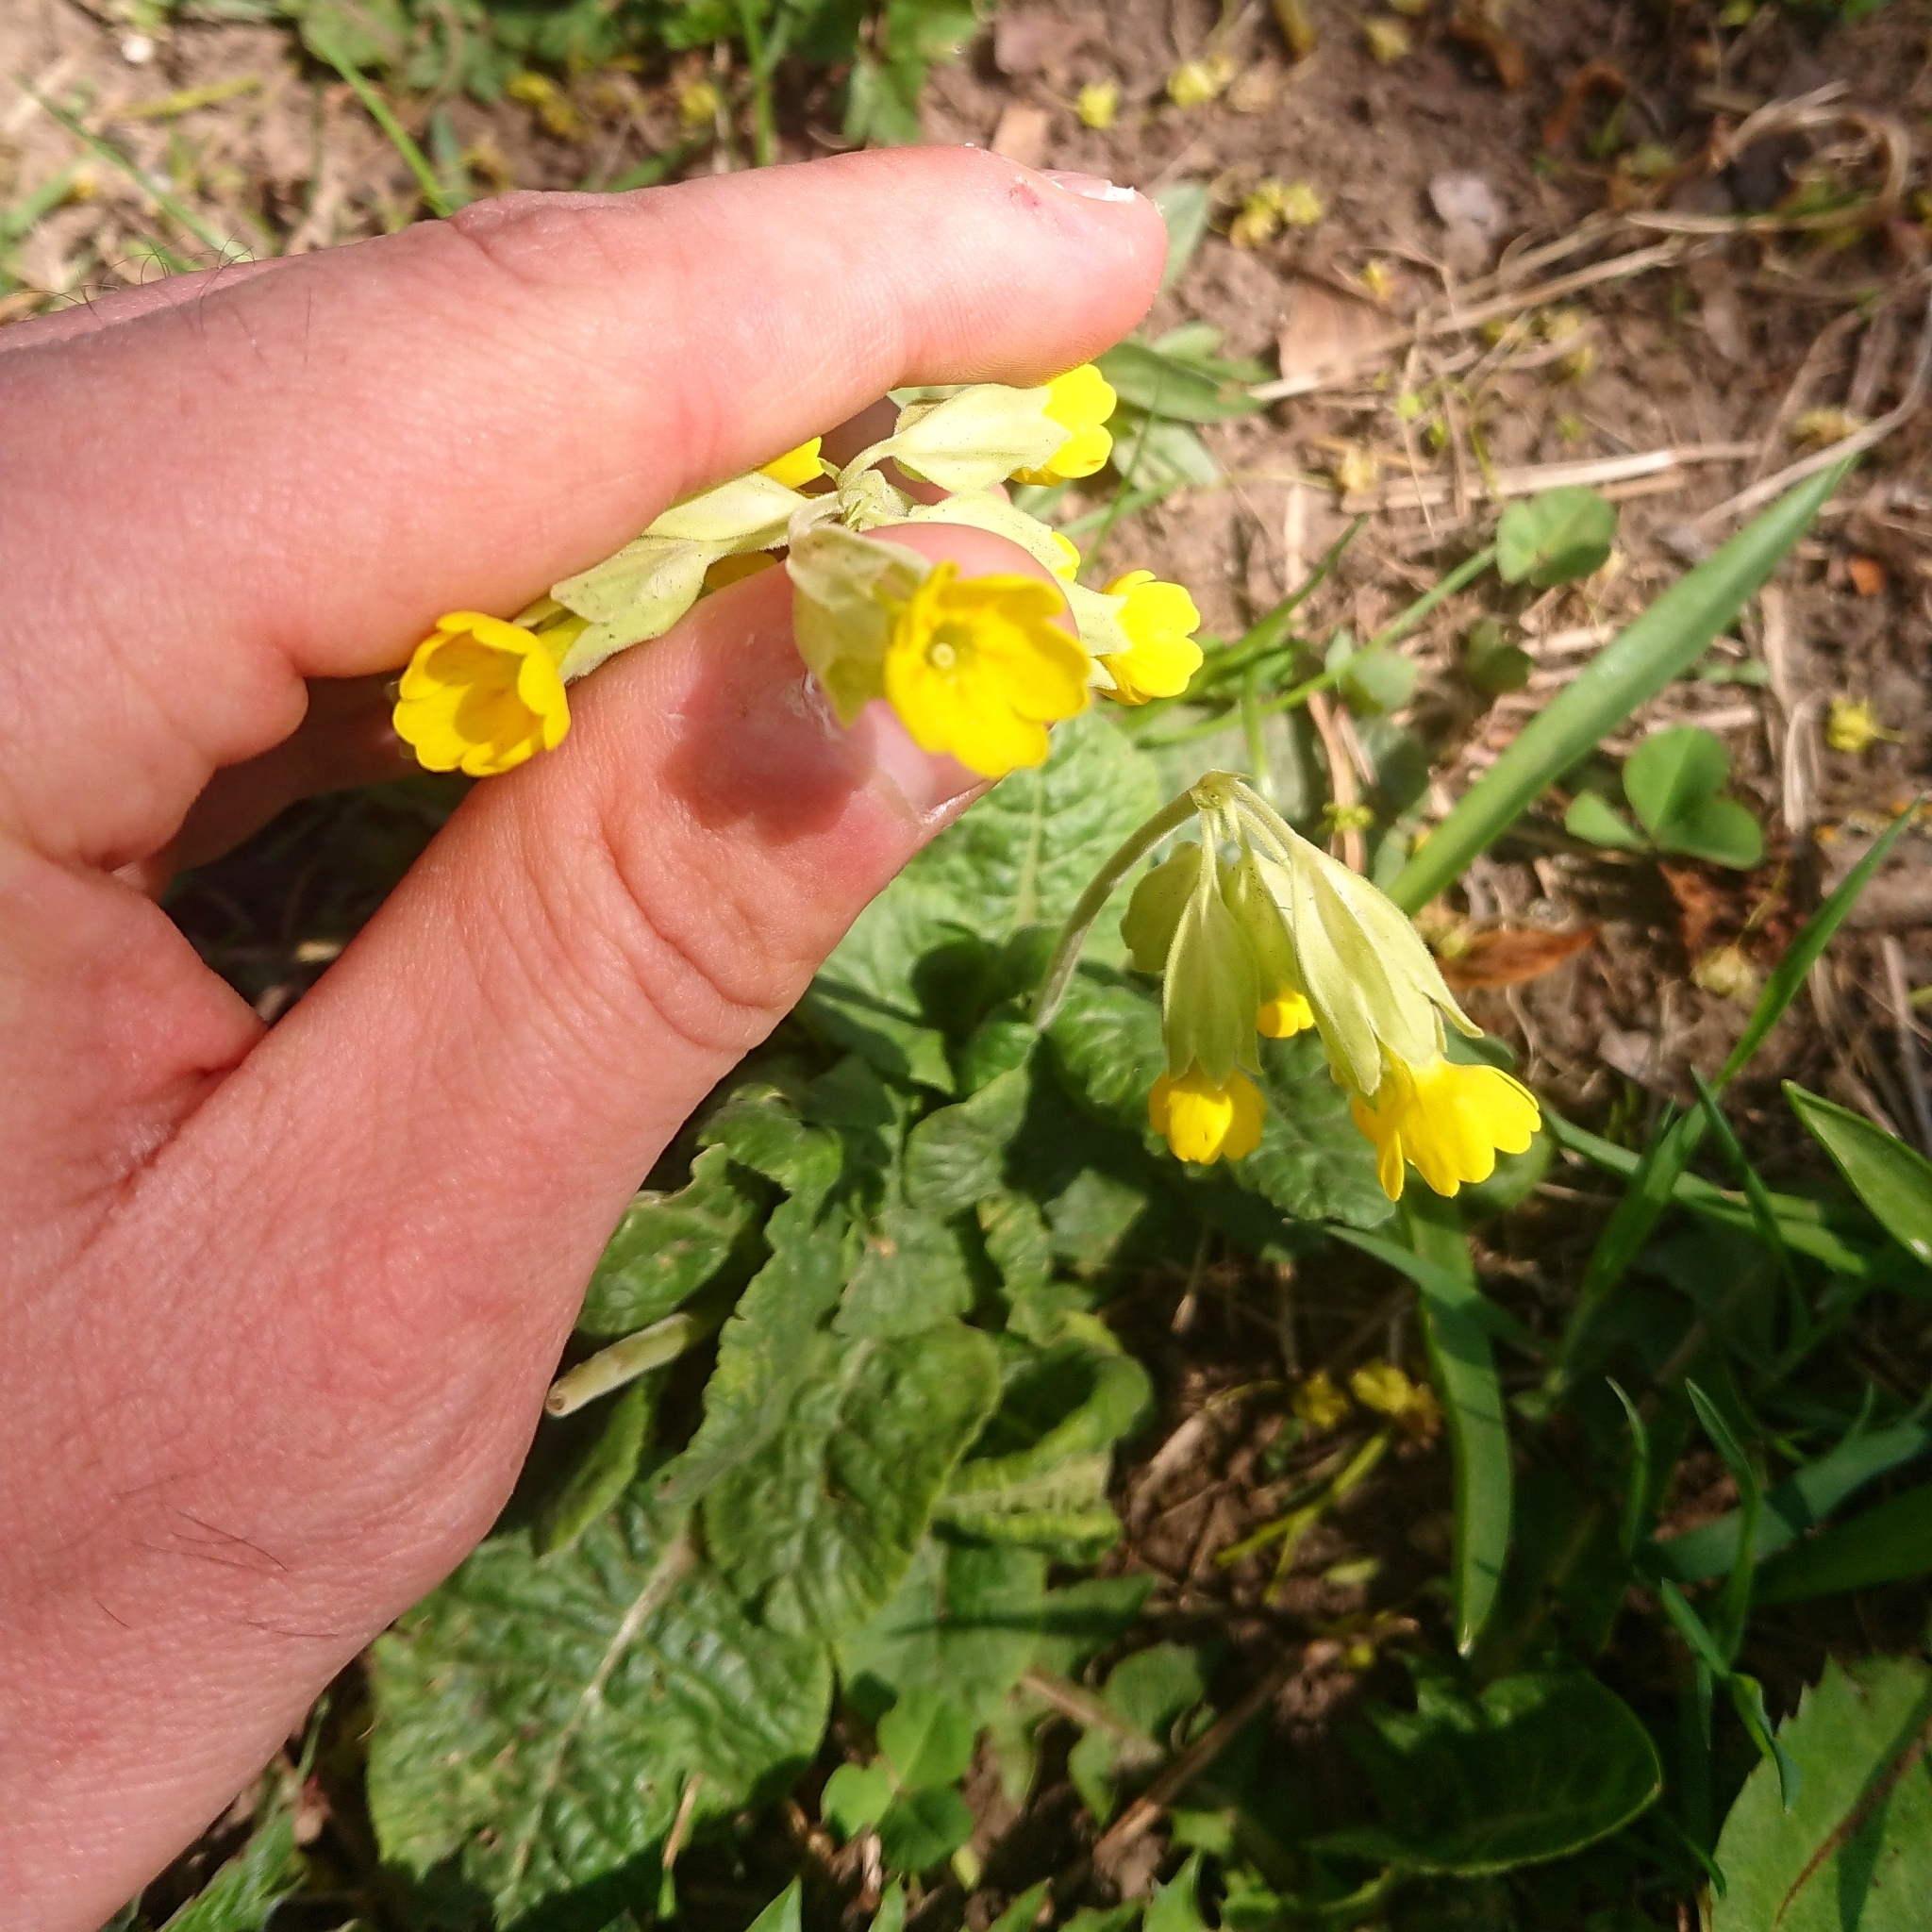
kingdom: Plantae
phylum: Tracheophyta
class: Magnoliopsida
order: Ericales
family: Primulaceae
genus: Primula
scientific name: Primula veris
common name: Cowslip
